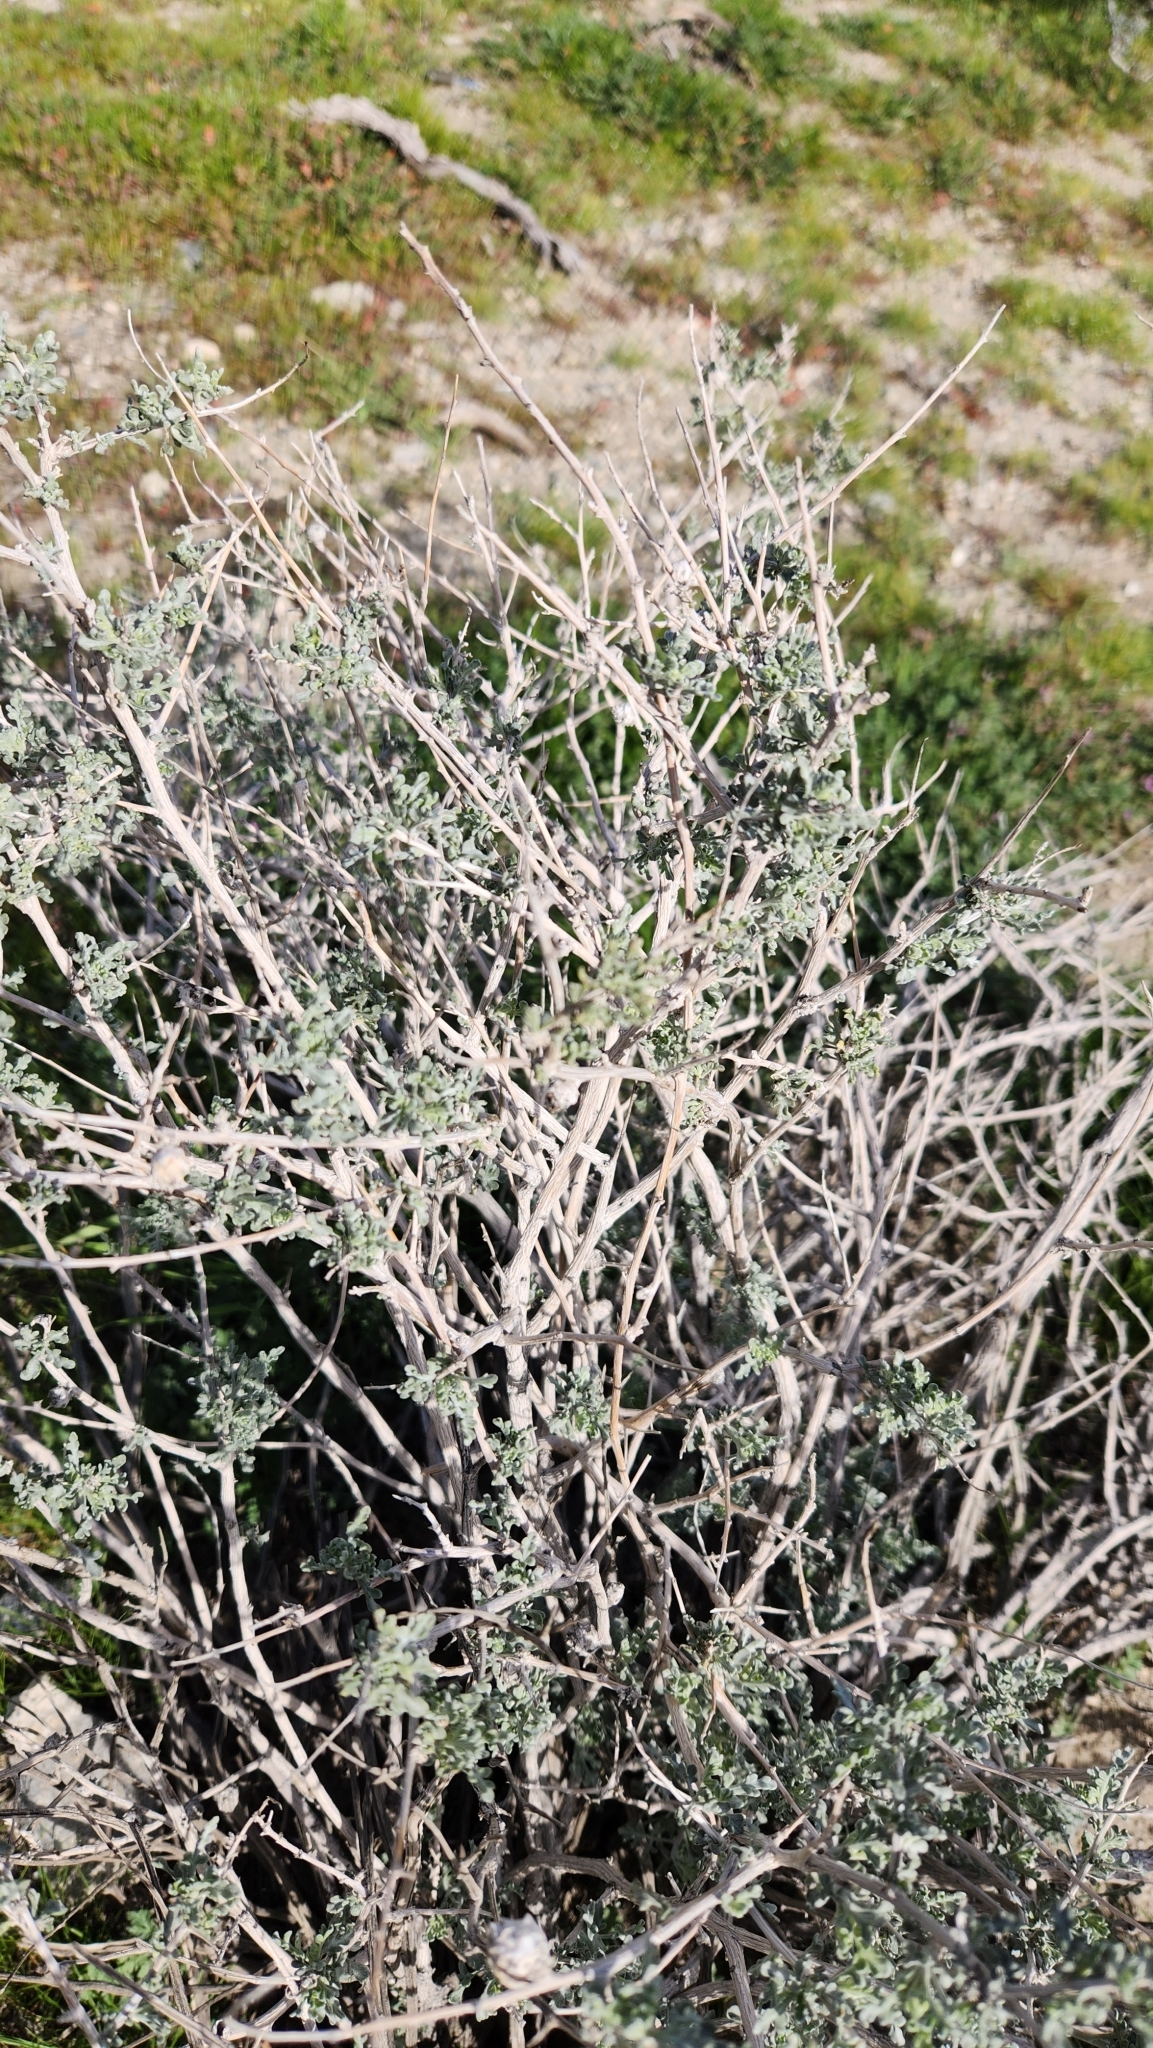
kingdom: Plantae
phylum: Tracheophyta
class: Magnoliopsida
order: Asterales
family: Asteraceae
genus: Ambrosia
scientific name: Ambrosia dumosa
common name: Bur-sage
